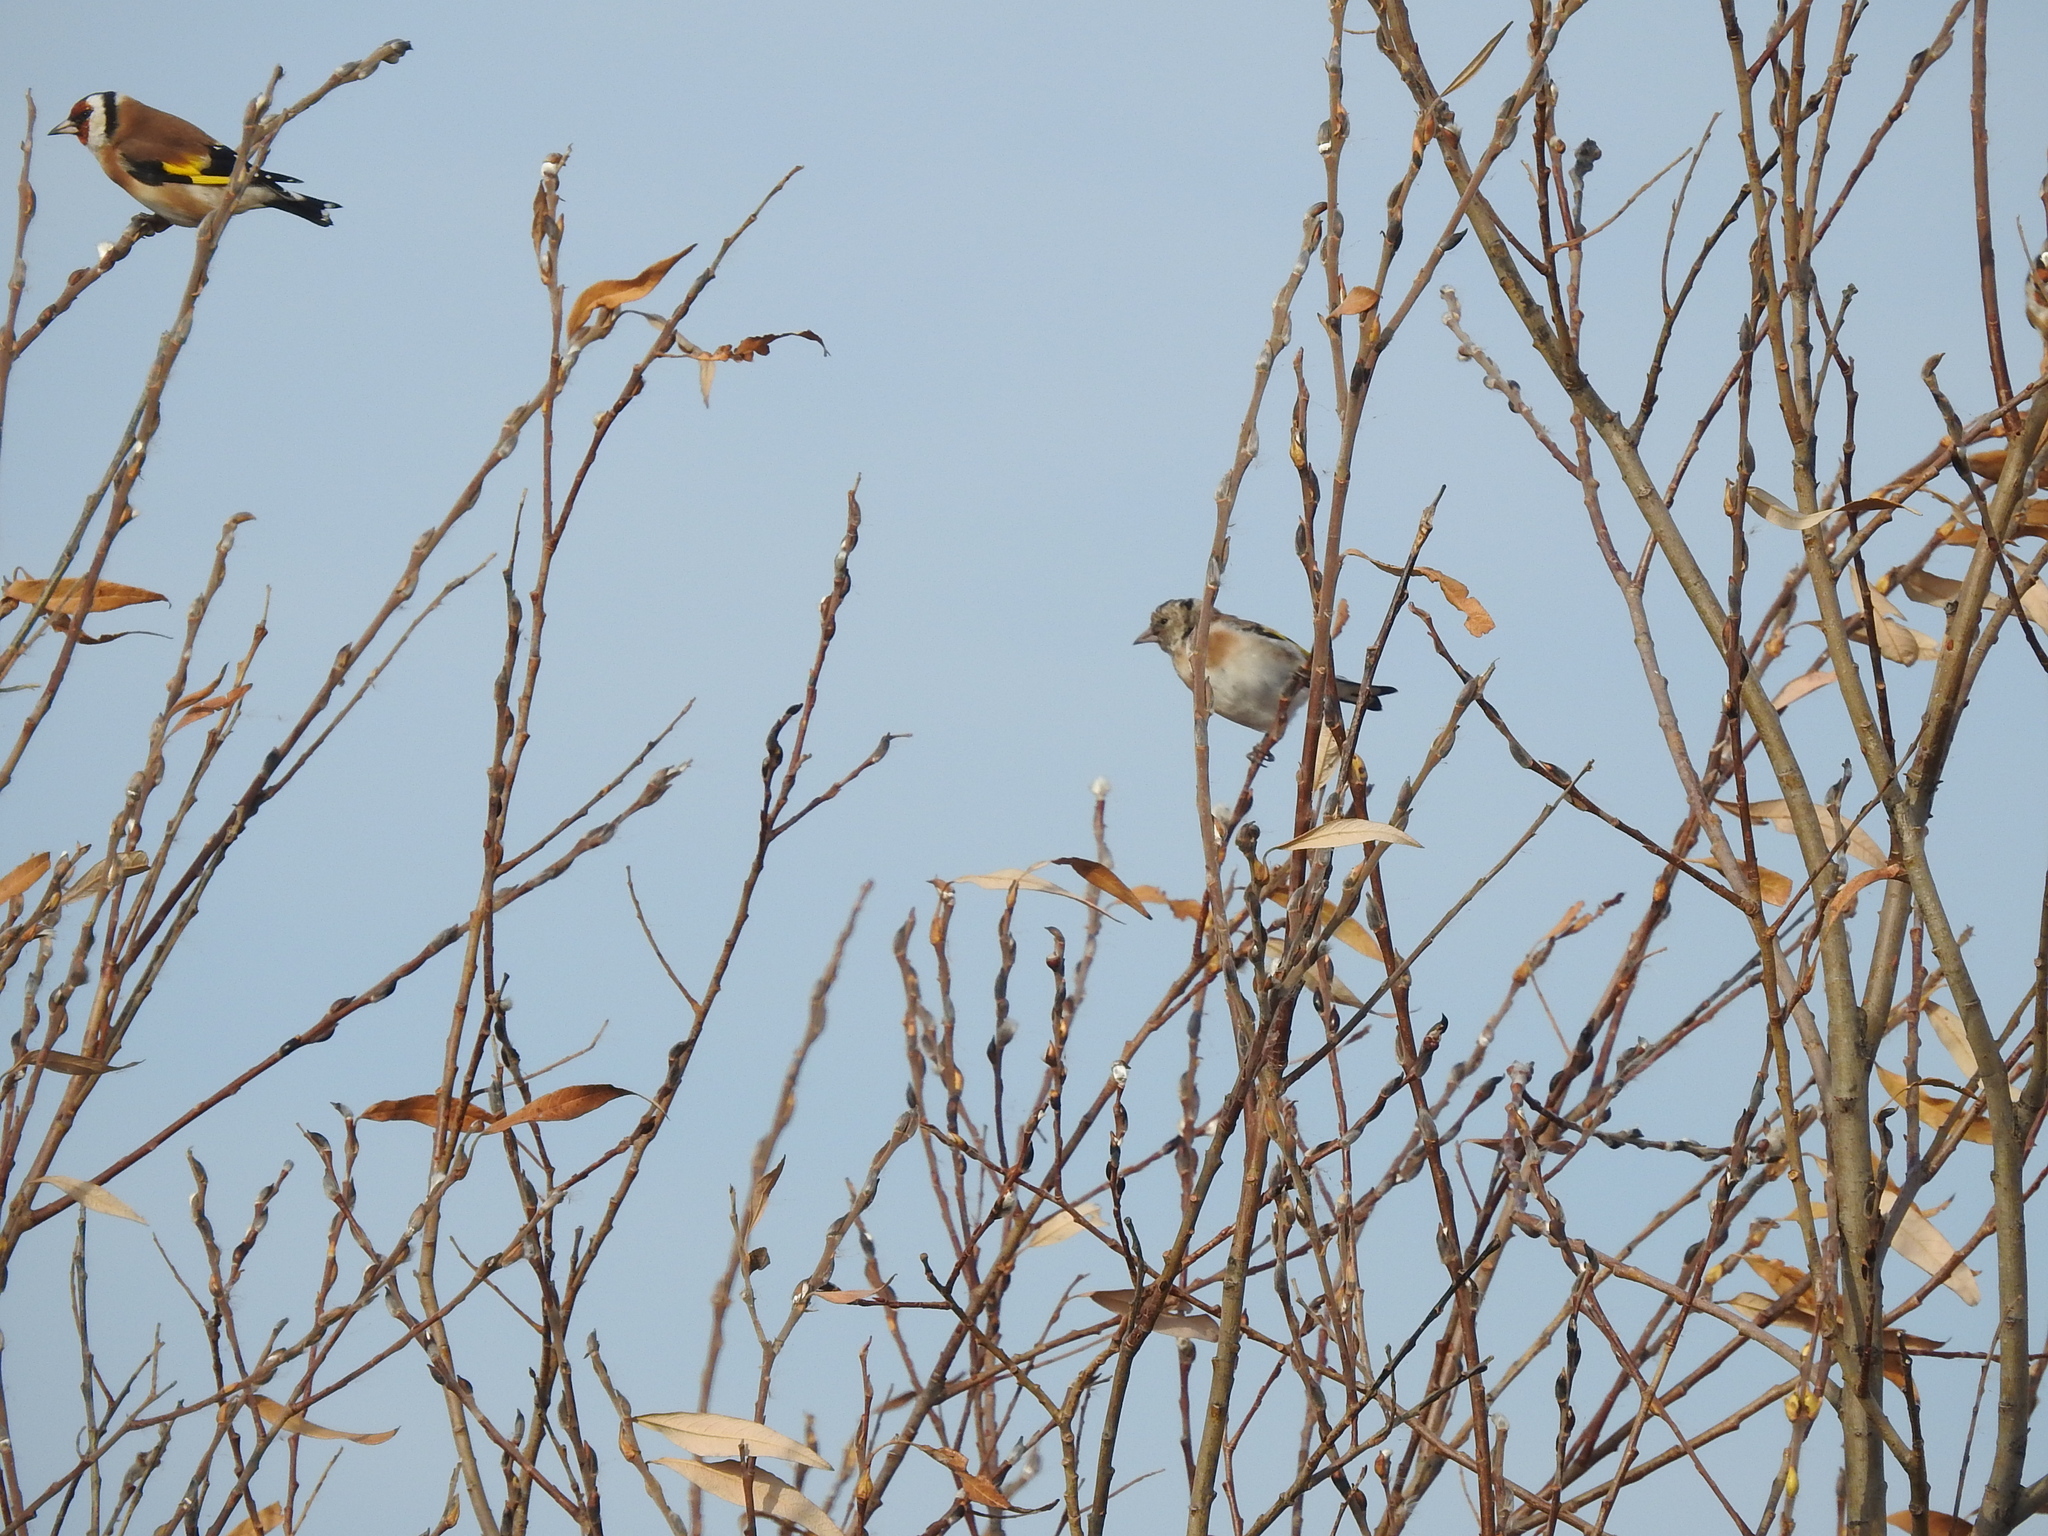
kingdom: Animalia
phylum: Chordata
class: Aves
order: Passeriformes
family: Fringillidae
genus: Carduelis
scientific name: Carduelis carduelis
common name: European goldfinch
